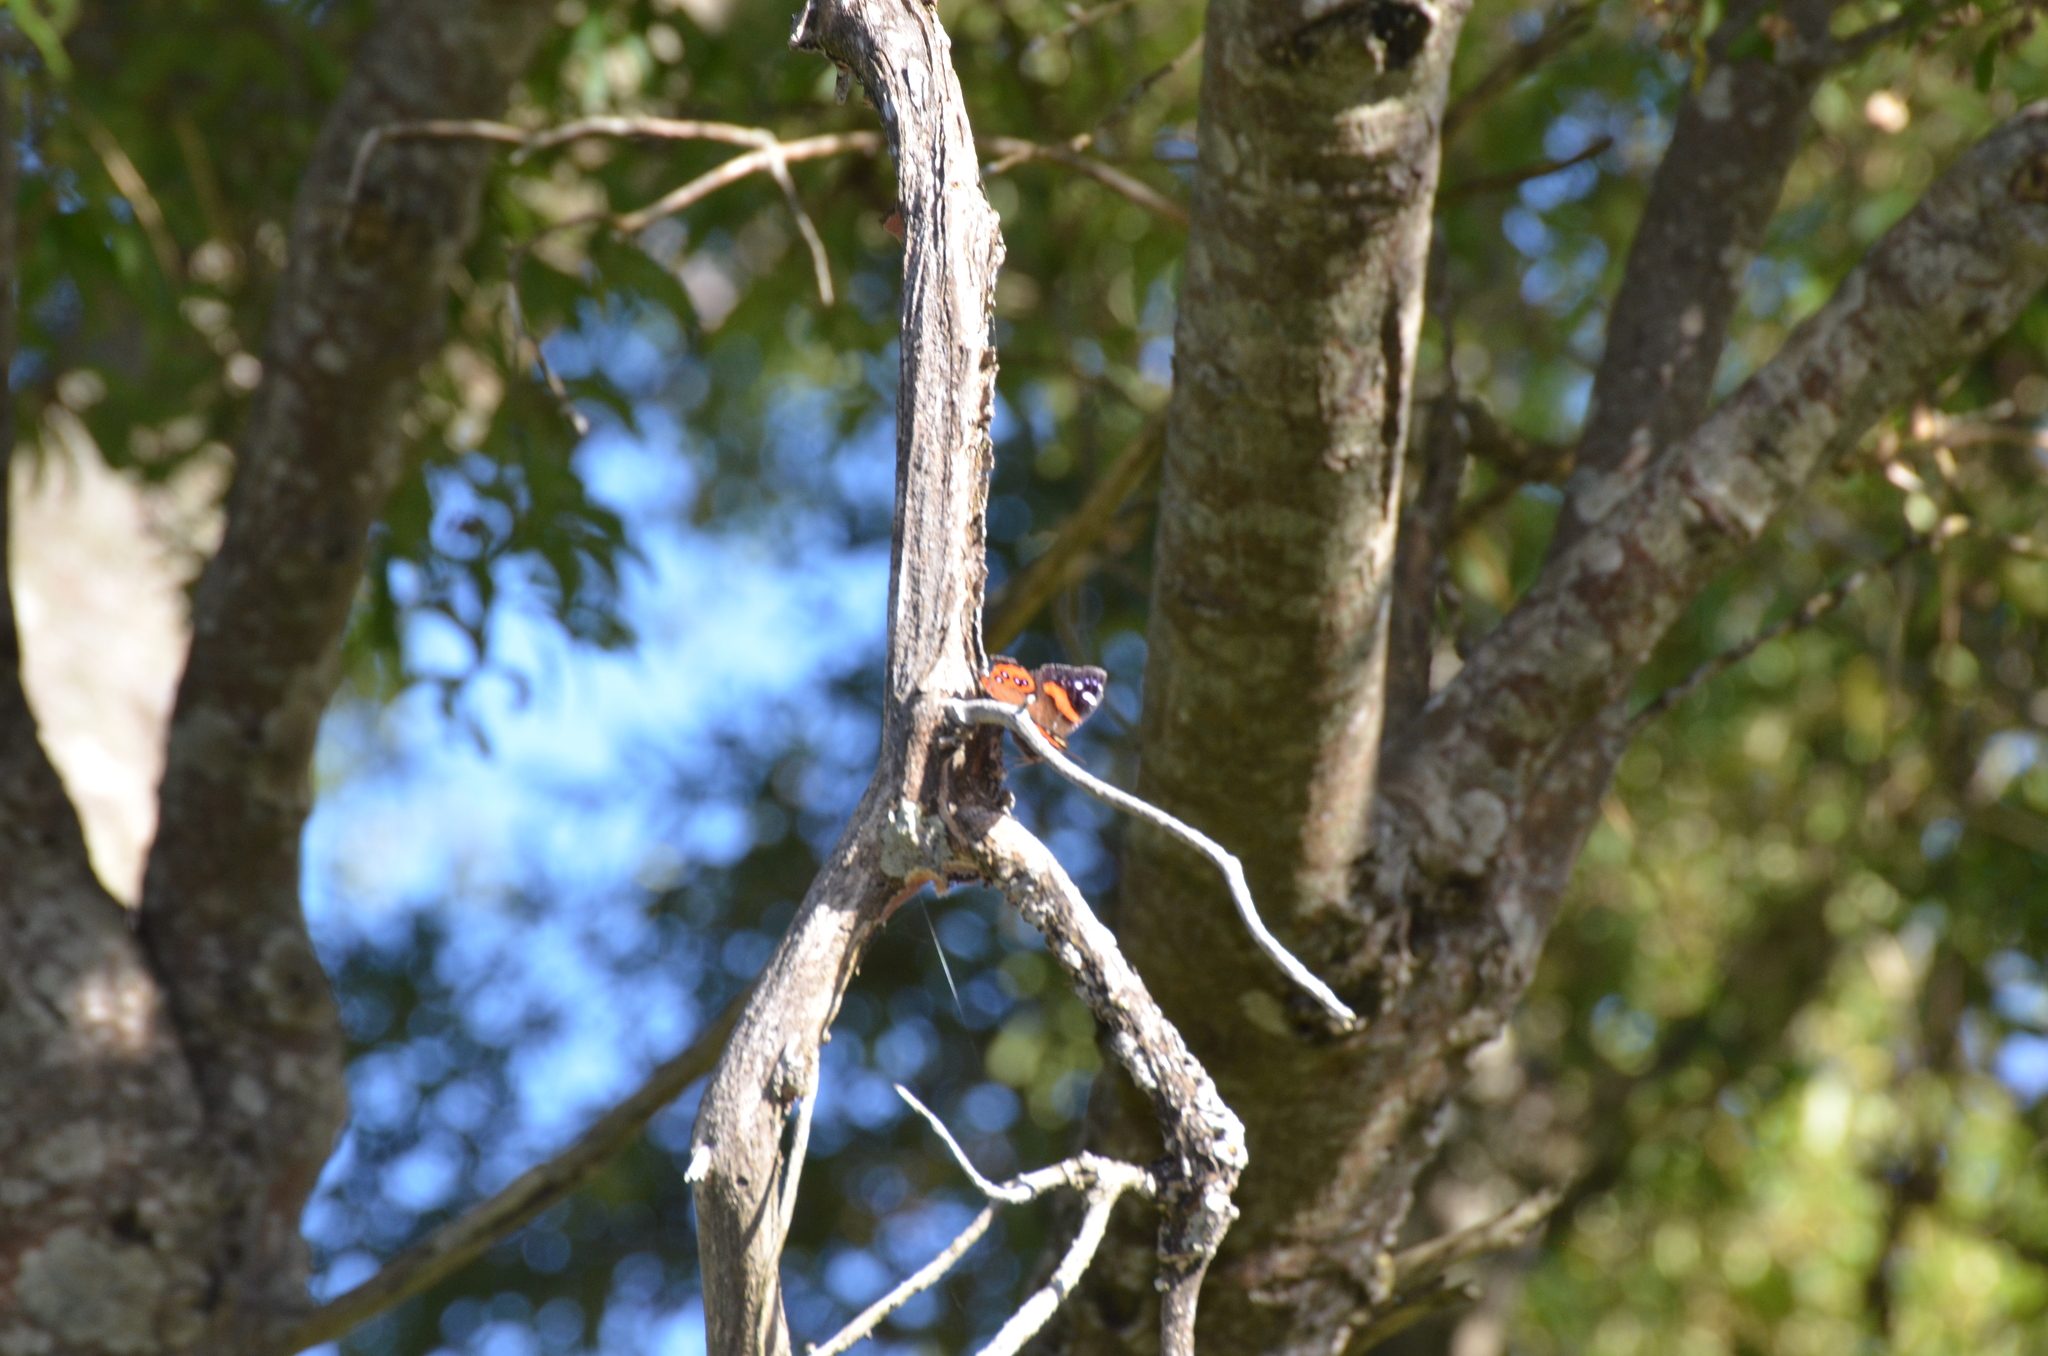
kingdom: Animalia
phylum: Arthropoda
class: Insecta
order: Lepidoptera
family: Nymphalidae
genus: Vanessa
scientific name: Vanessa gonerilla
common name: New zealand red admiral
